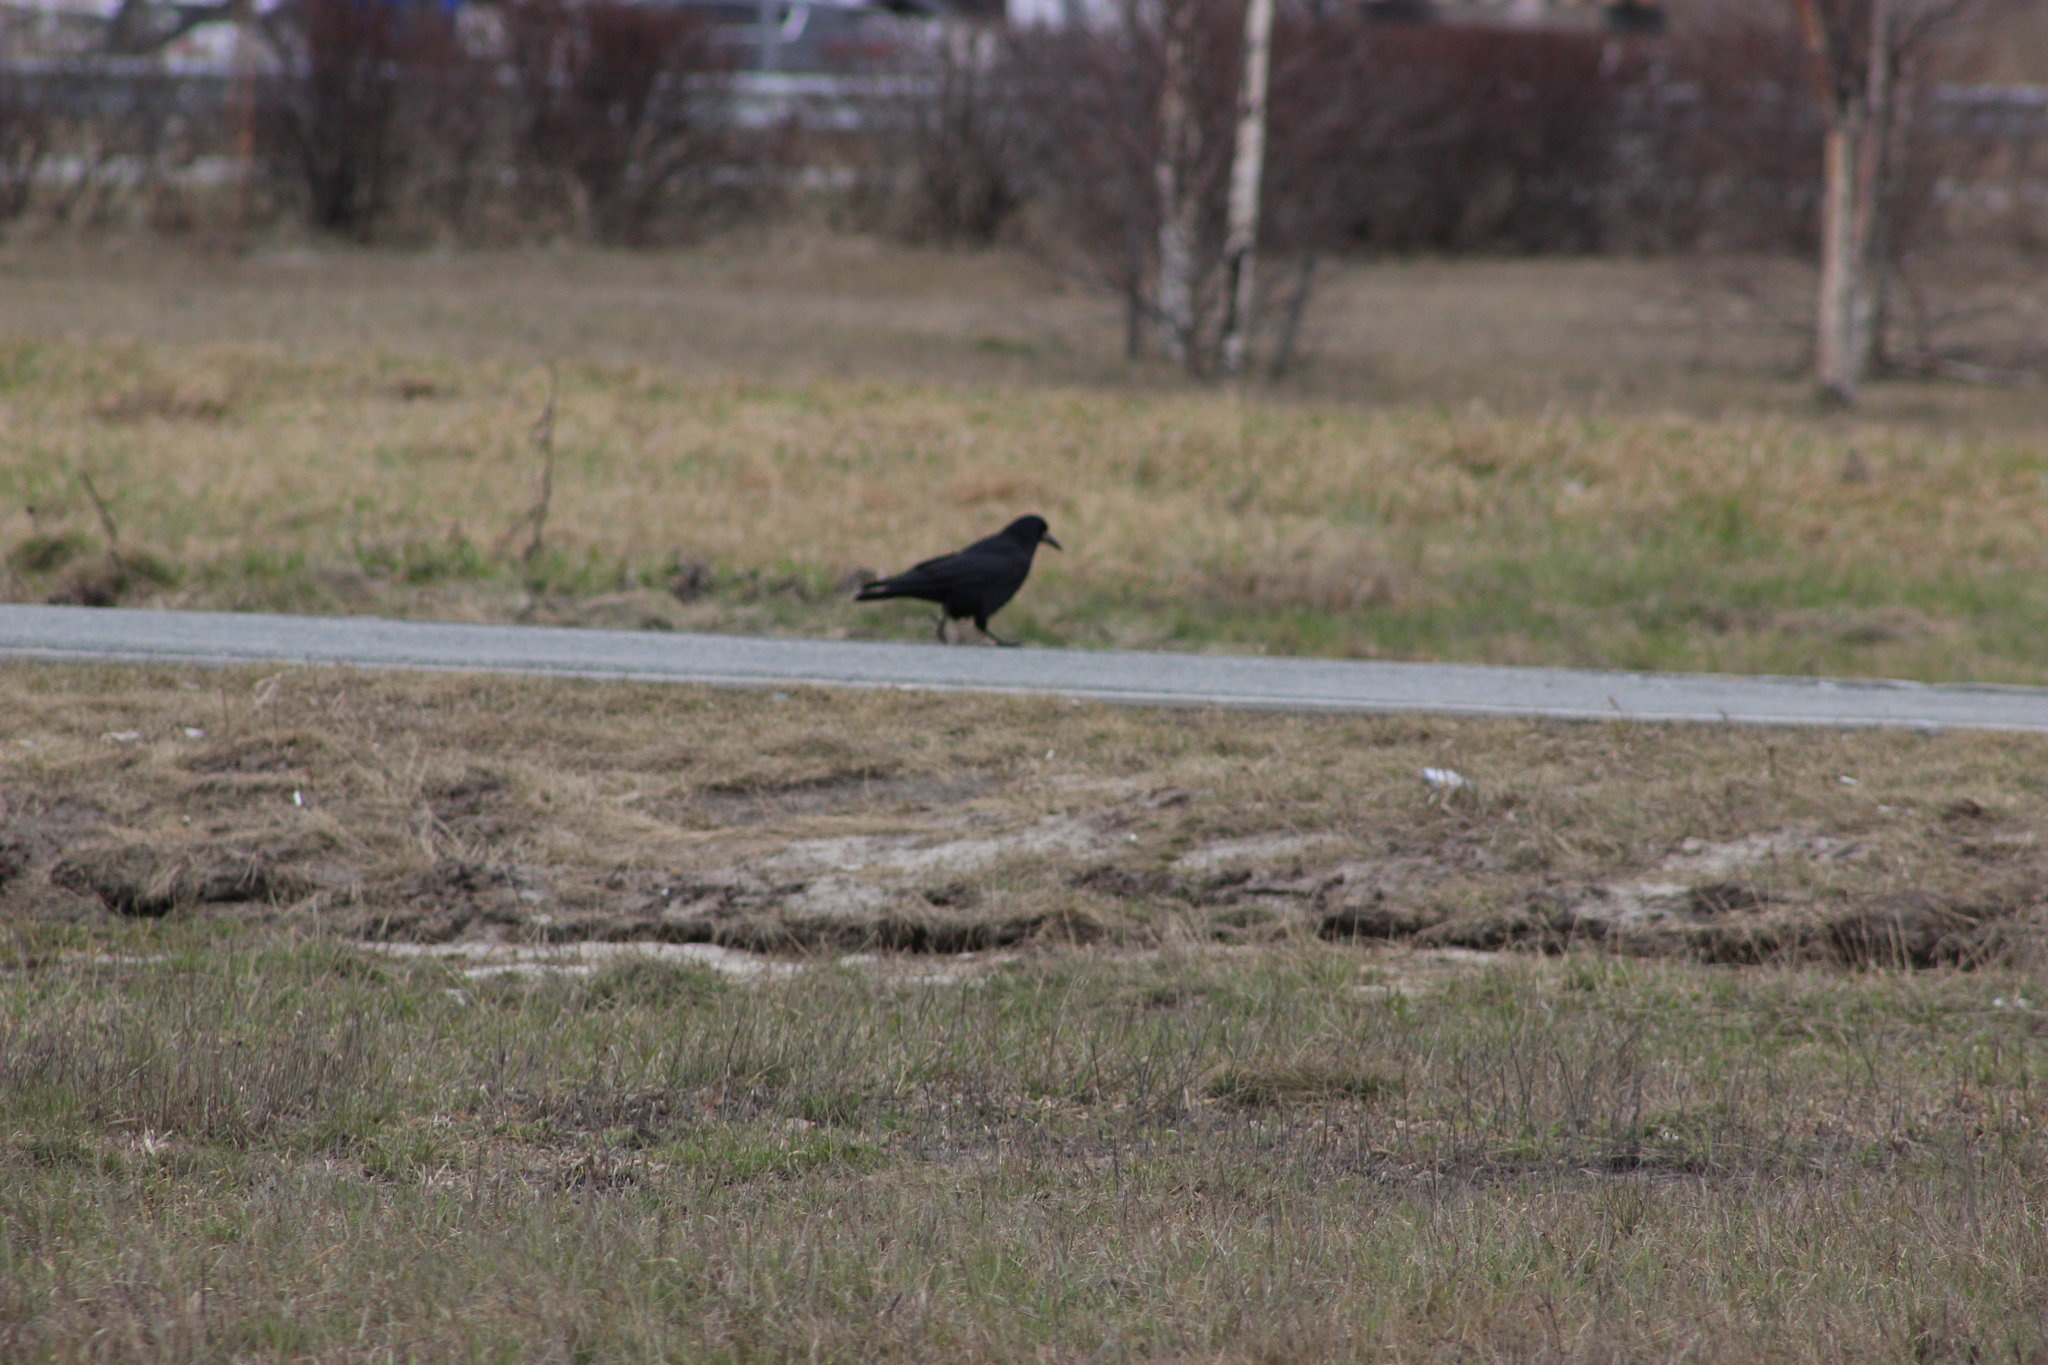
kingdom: Animalia
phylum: Chordata
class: Aves
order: Passeriformes
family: Corvidae
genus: Corvus
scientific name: Corvus frugilegus
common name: Rook
